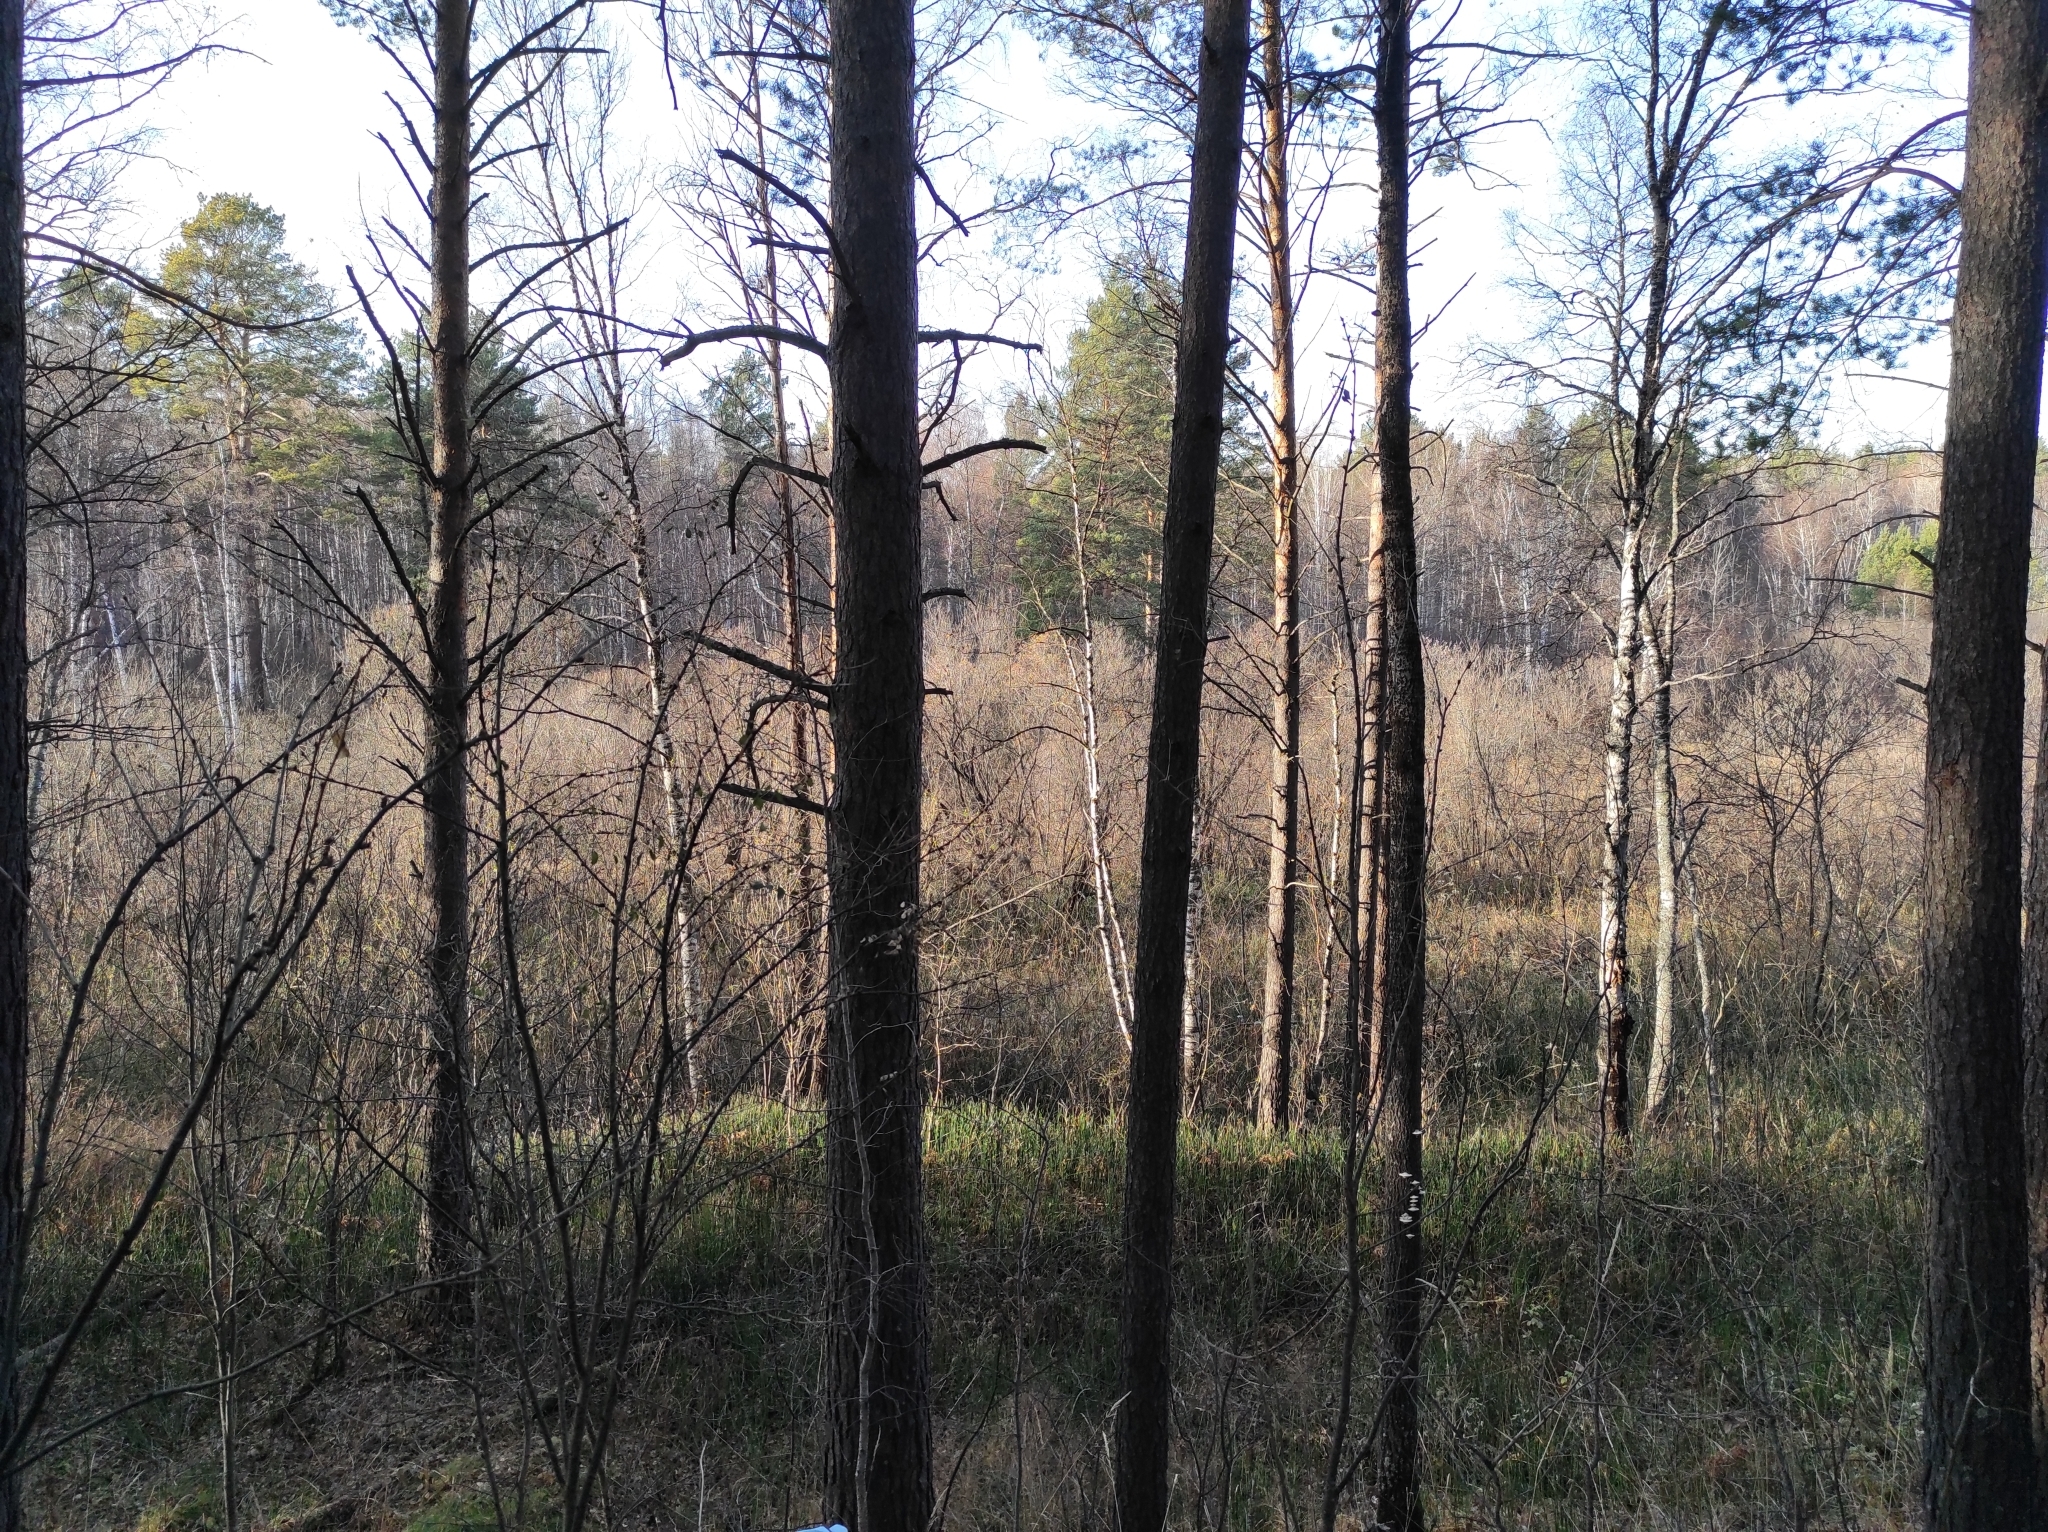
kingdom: Plantae
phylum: Tracheophyta
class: Pinopsida
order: Pinales
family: Pinaceae
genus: Pinus
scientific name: Pinus sylvestris
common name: Scots pine
